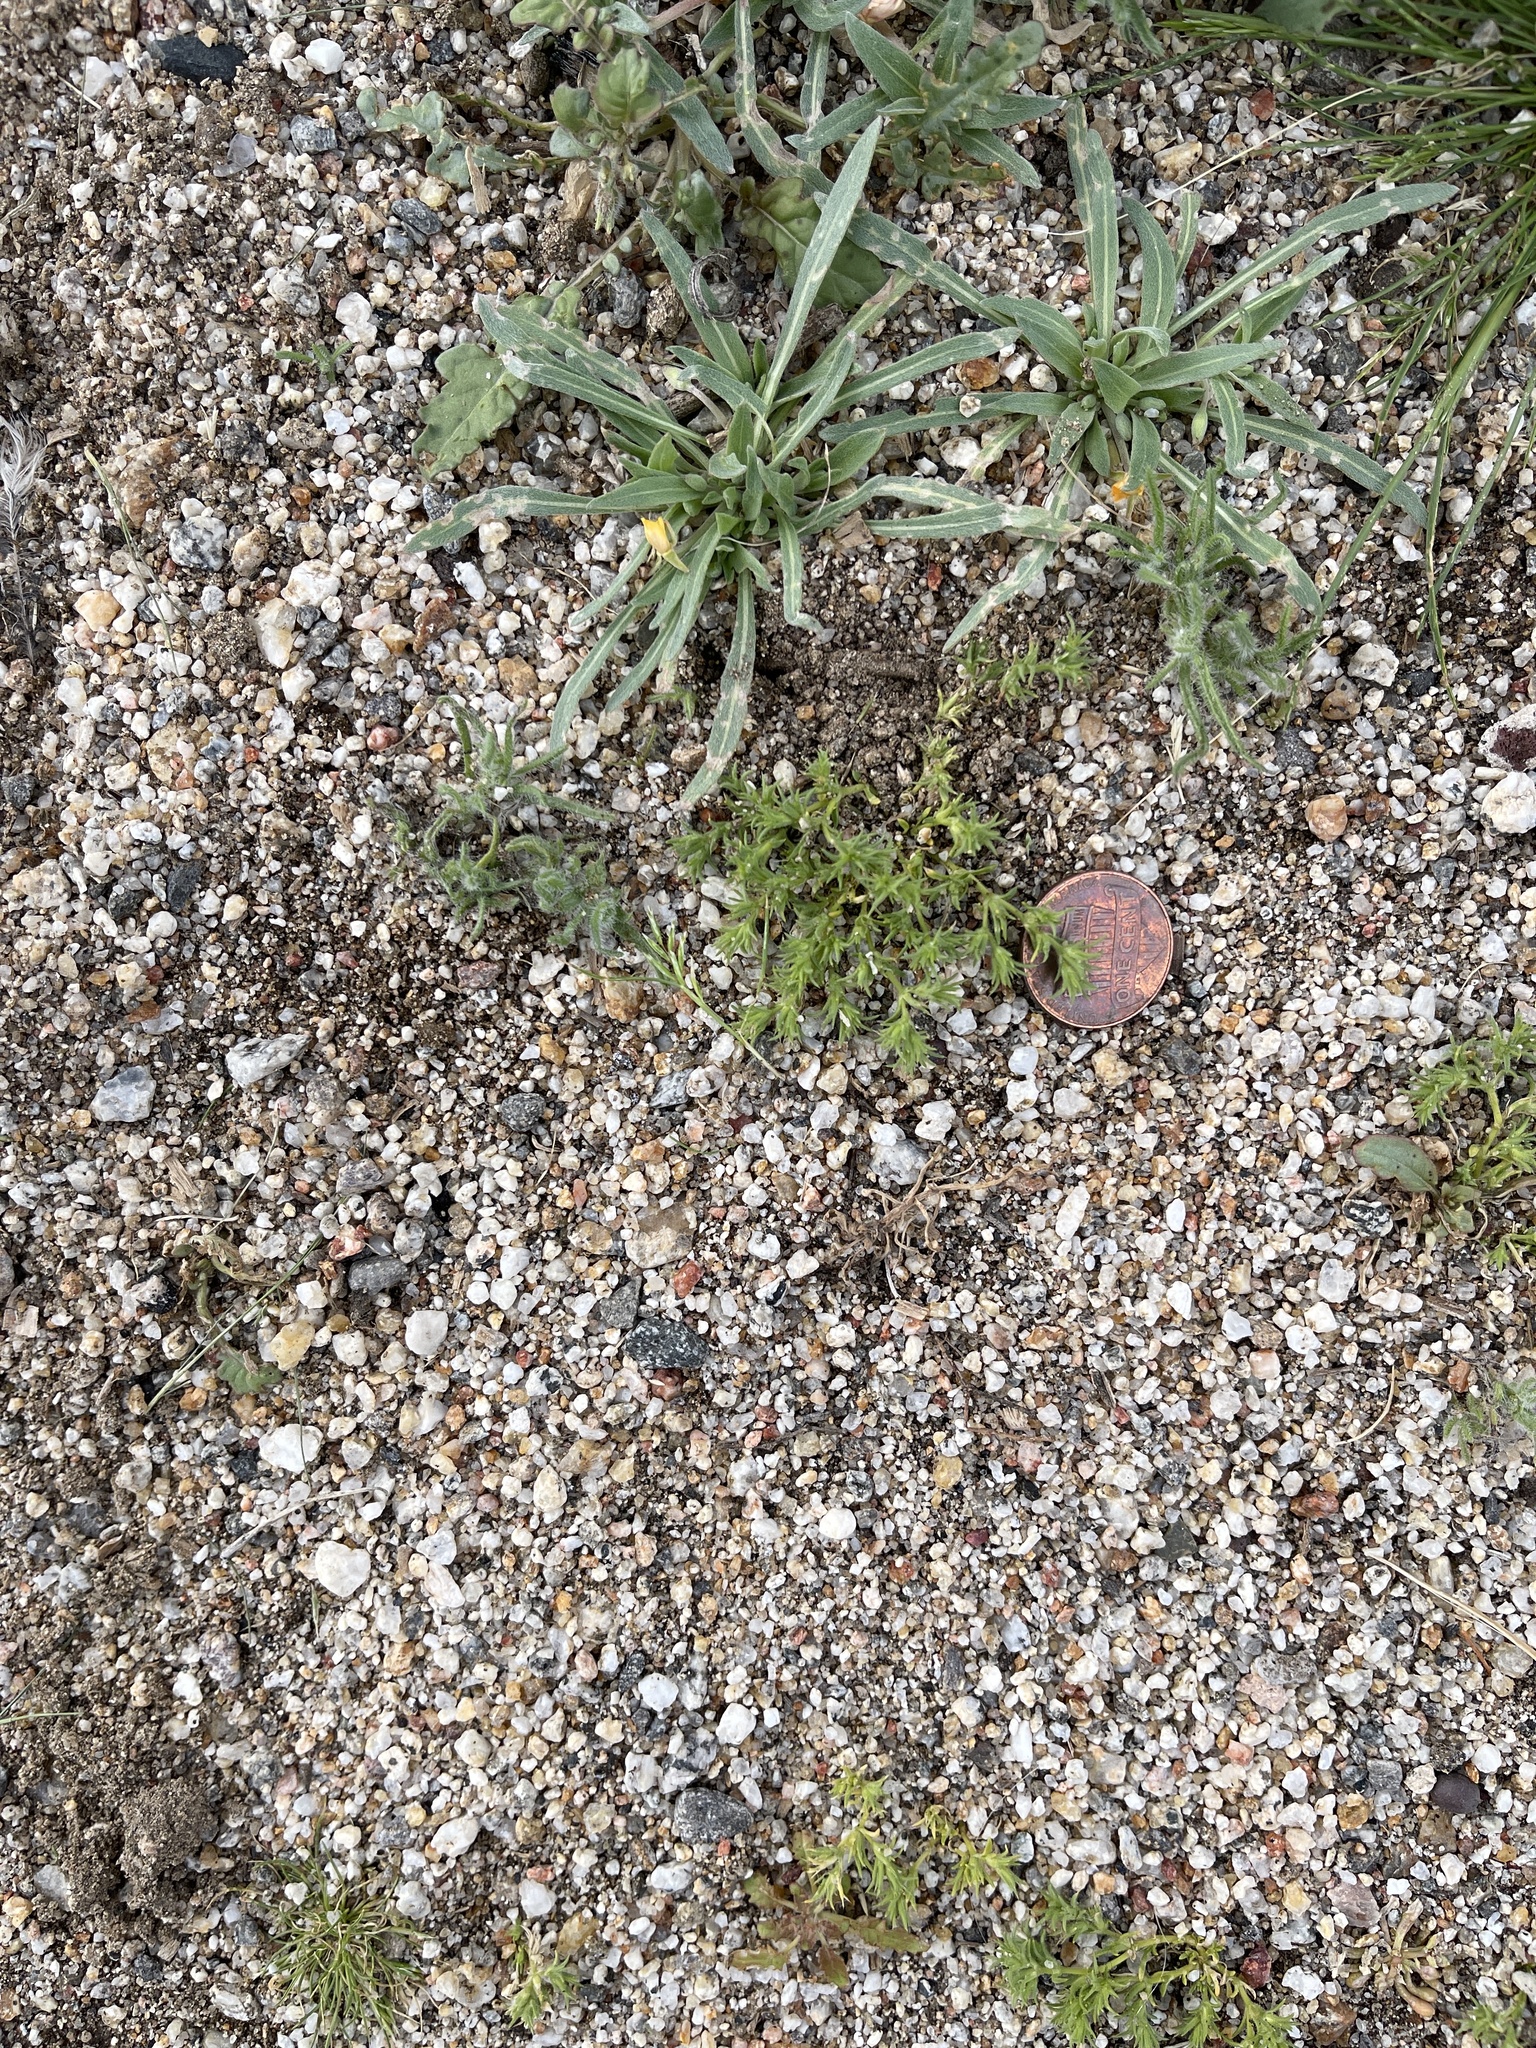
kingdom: Plantae
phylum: Tracheophyta
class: Magnoliopsida
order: Caryophyllales
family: Caryophyllaceae
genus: Loeflingia
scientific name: Loeflingia squarrosa
